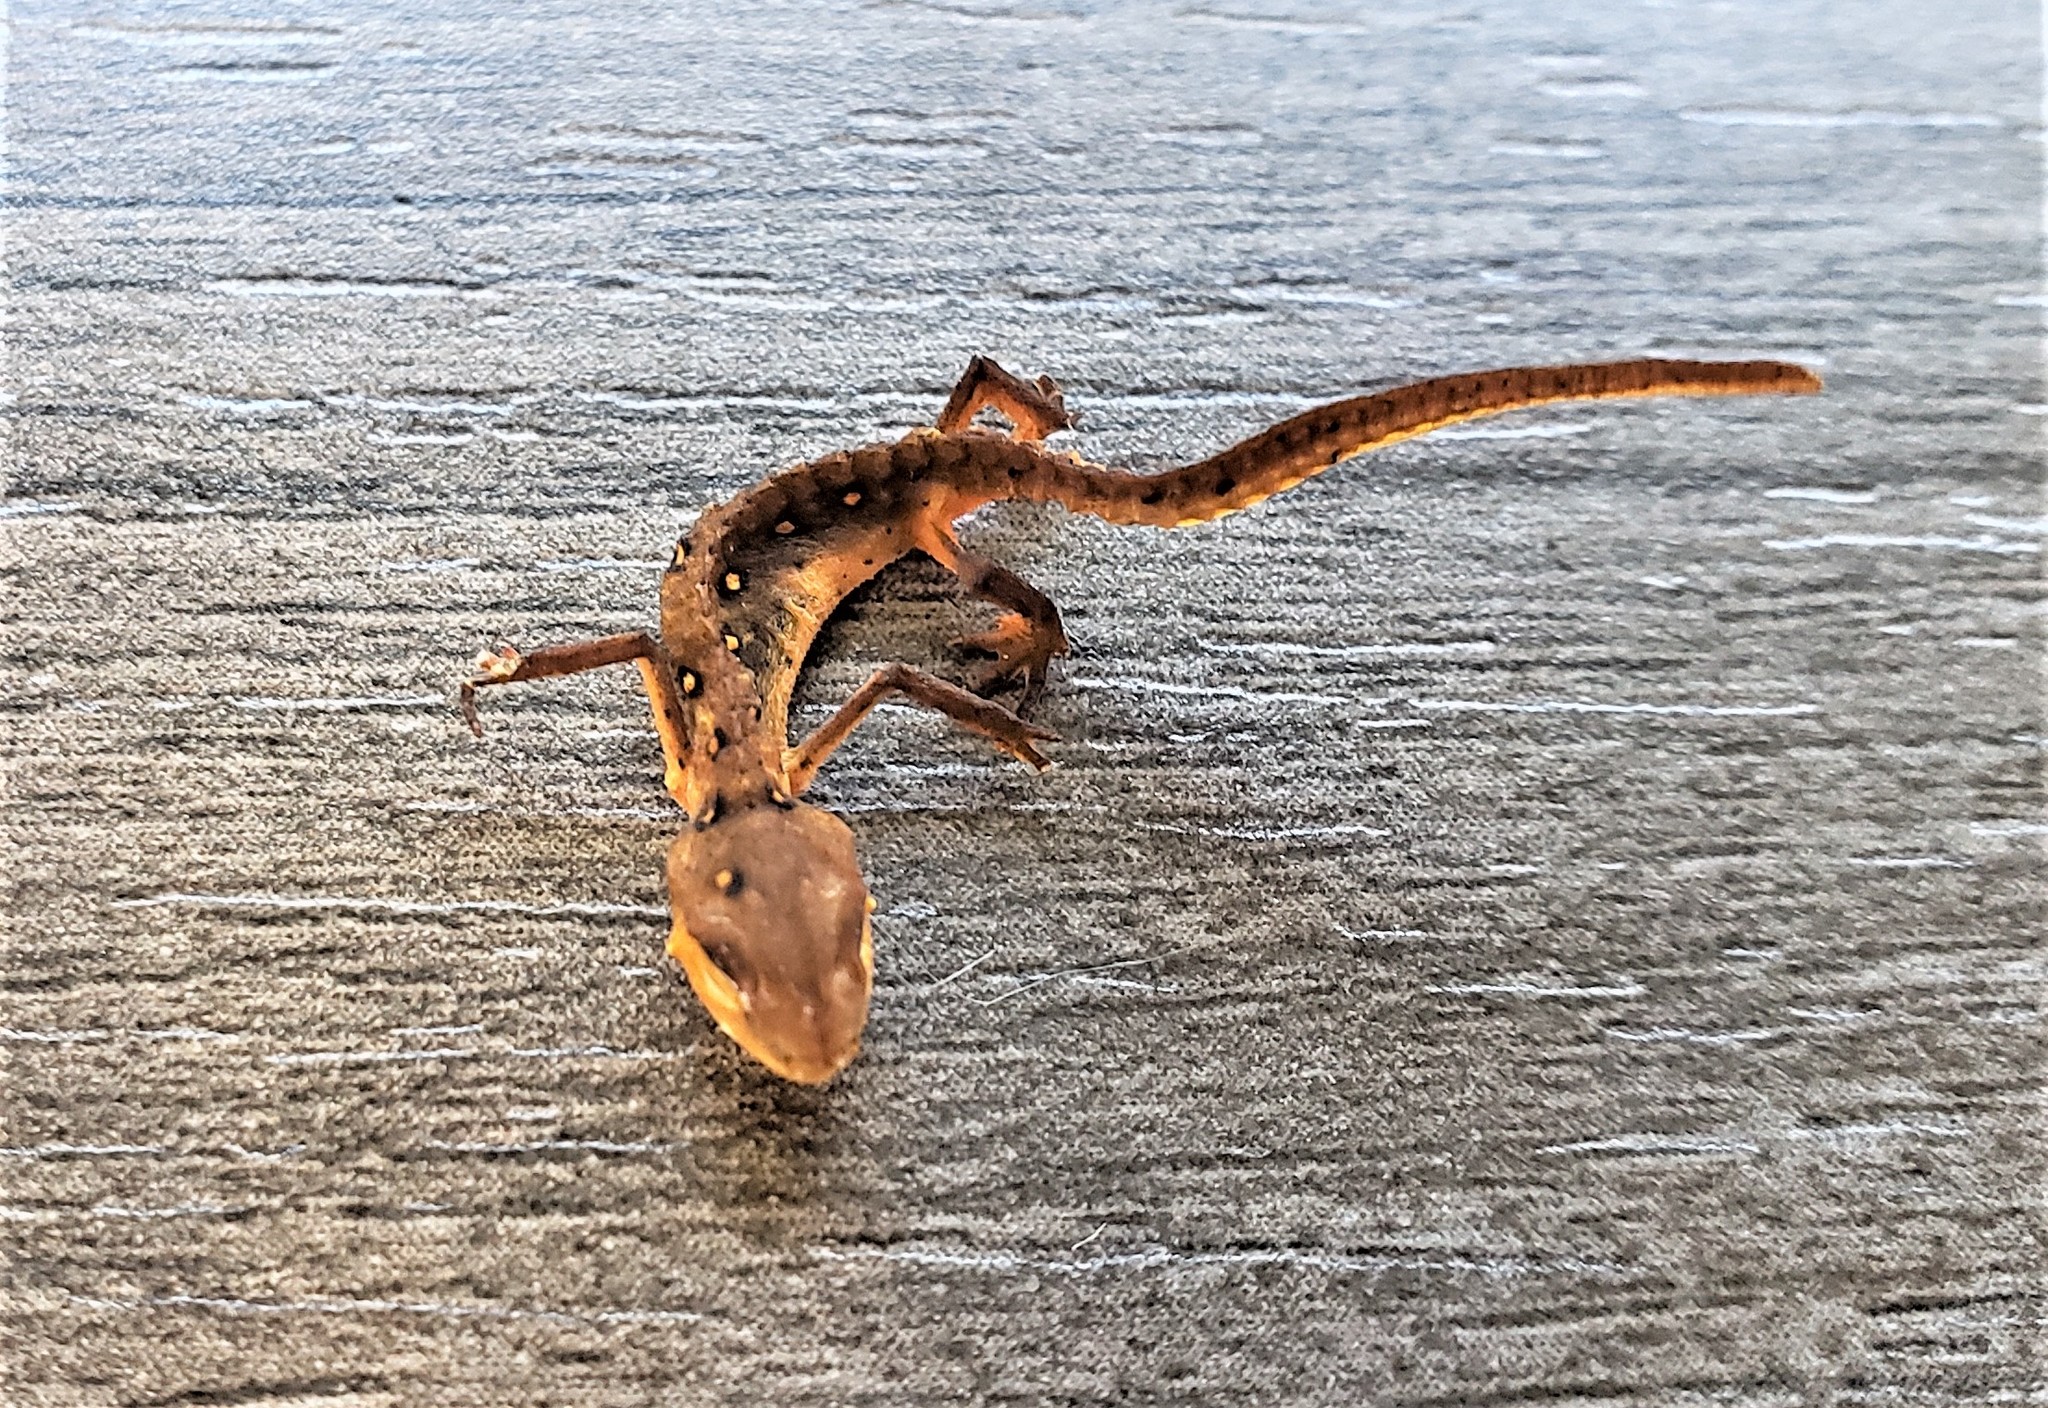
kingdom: Animalia
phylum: Chordata
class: Amphibia
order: Caudata
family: Salamandridae
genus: Notophthalmus
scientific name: Notophthalmus viridescens
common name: Eastern newt
